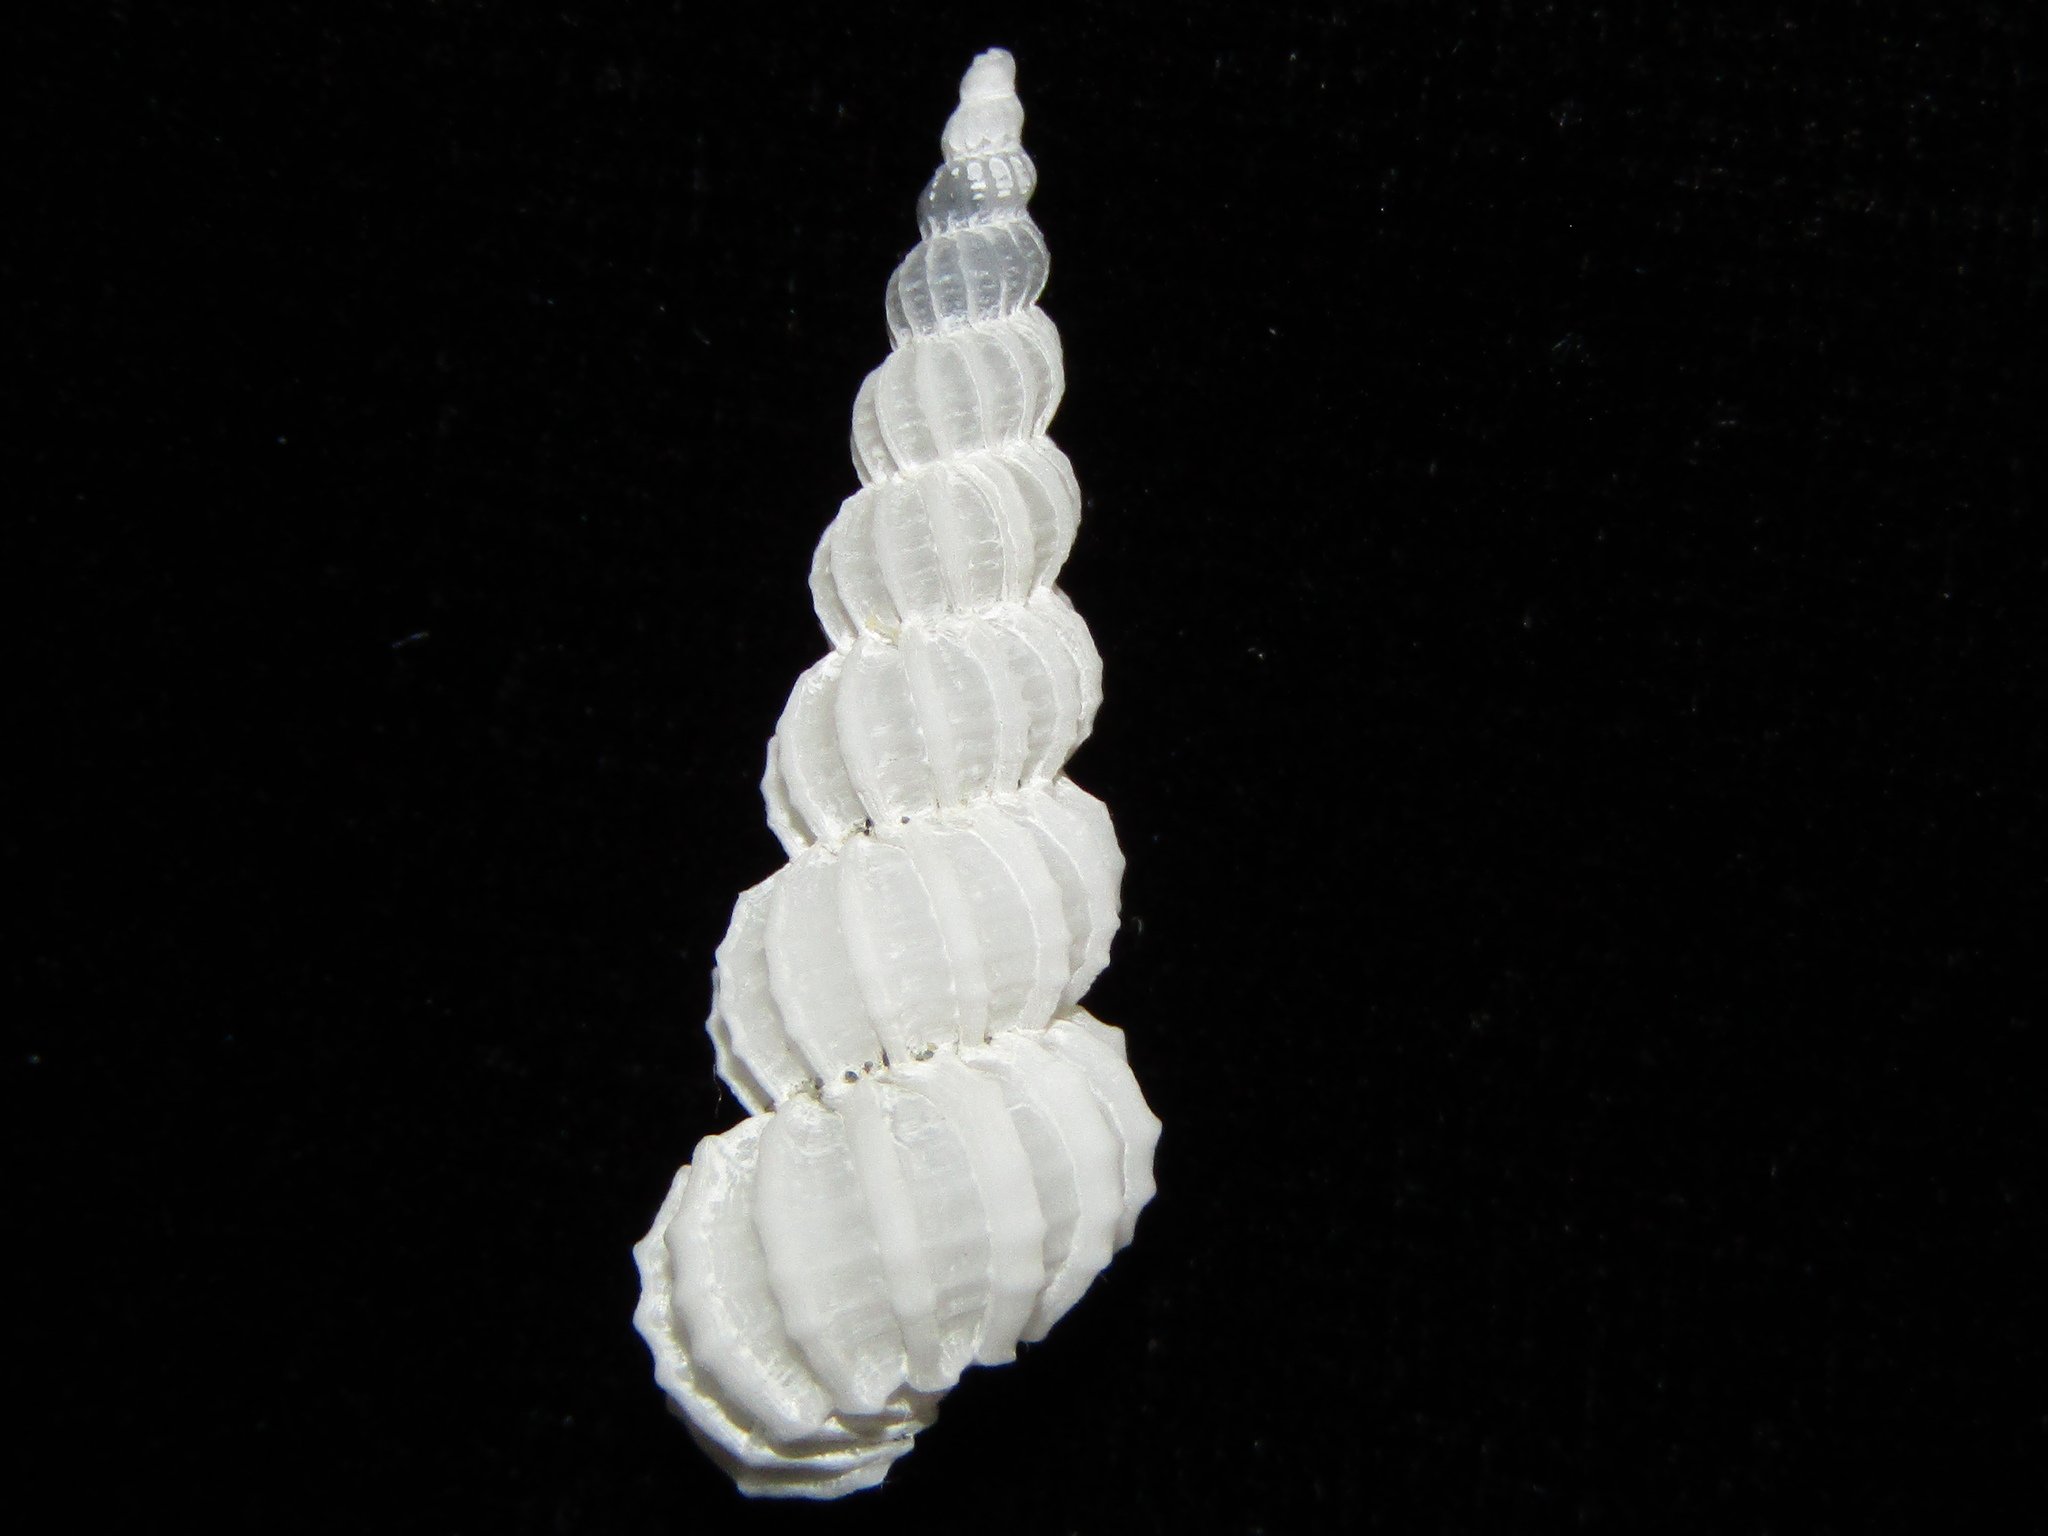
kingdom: Animalia
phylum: Mollusca
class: Gastropoda
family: Epitoniidae
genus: Cirsotrema
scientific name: Cirsotrema zelebori
